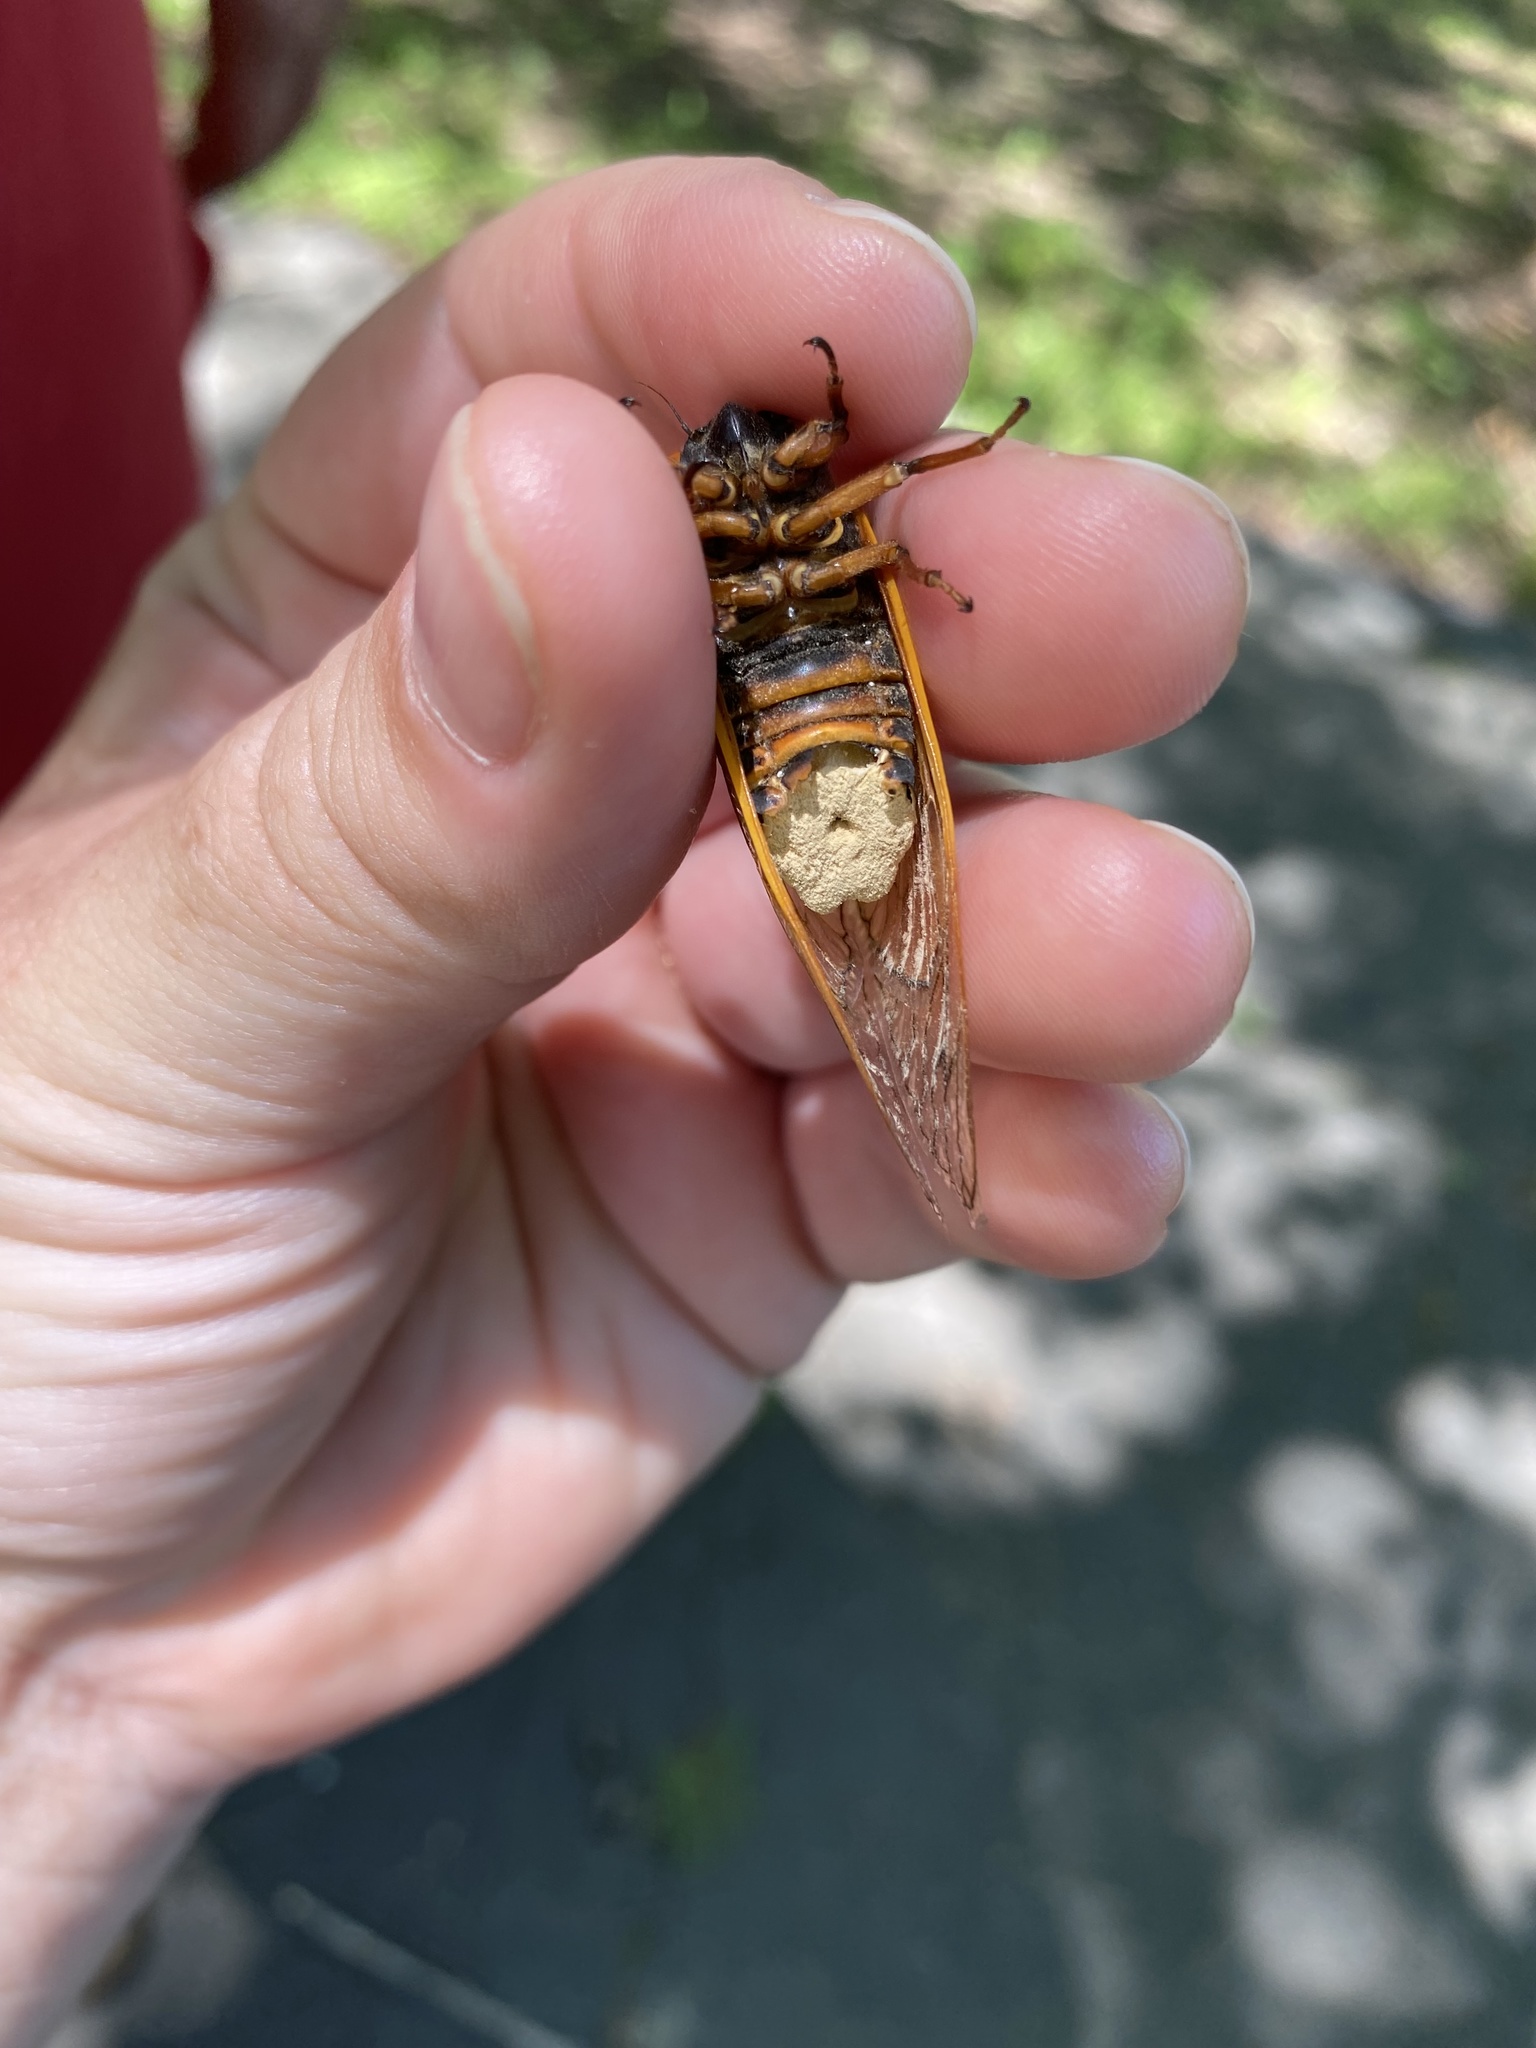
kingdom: Fungi
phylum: Entomophthoromycota
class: Entomophthoromycetes
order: Entomophthorales
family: Entomophthoraceae
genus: Massospora
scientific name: Massospora cicadina
